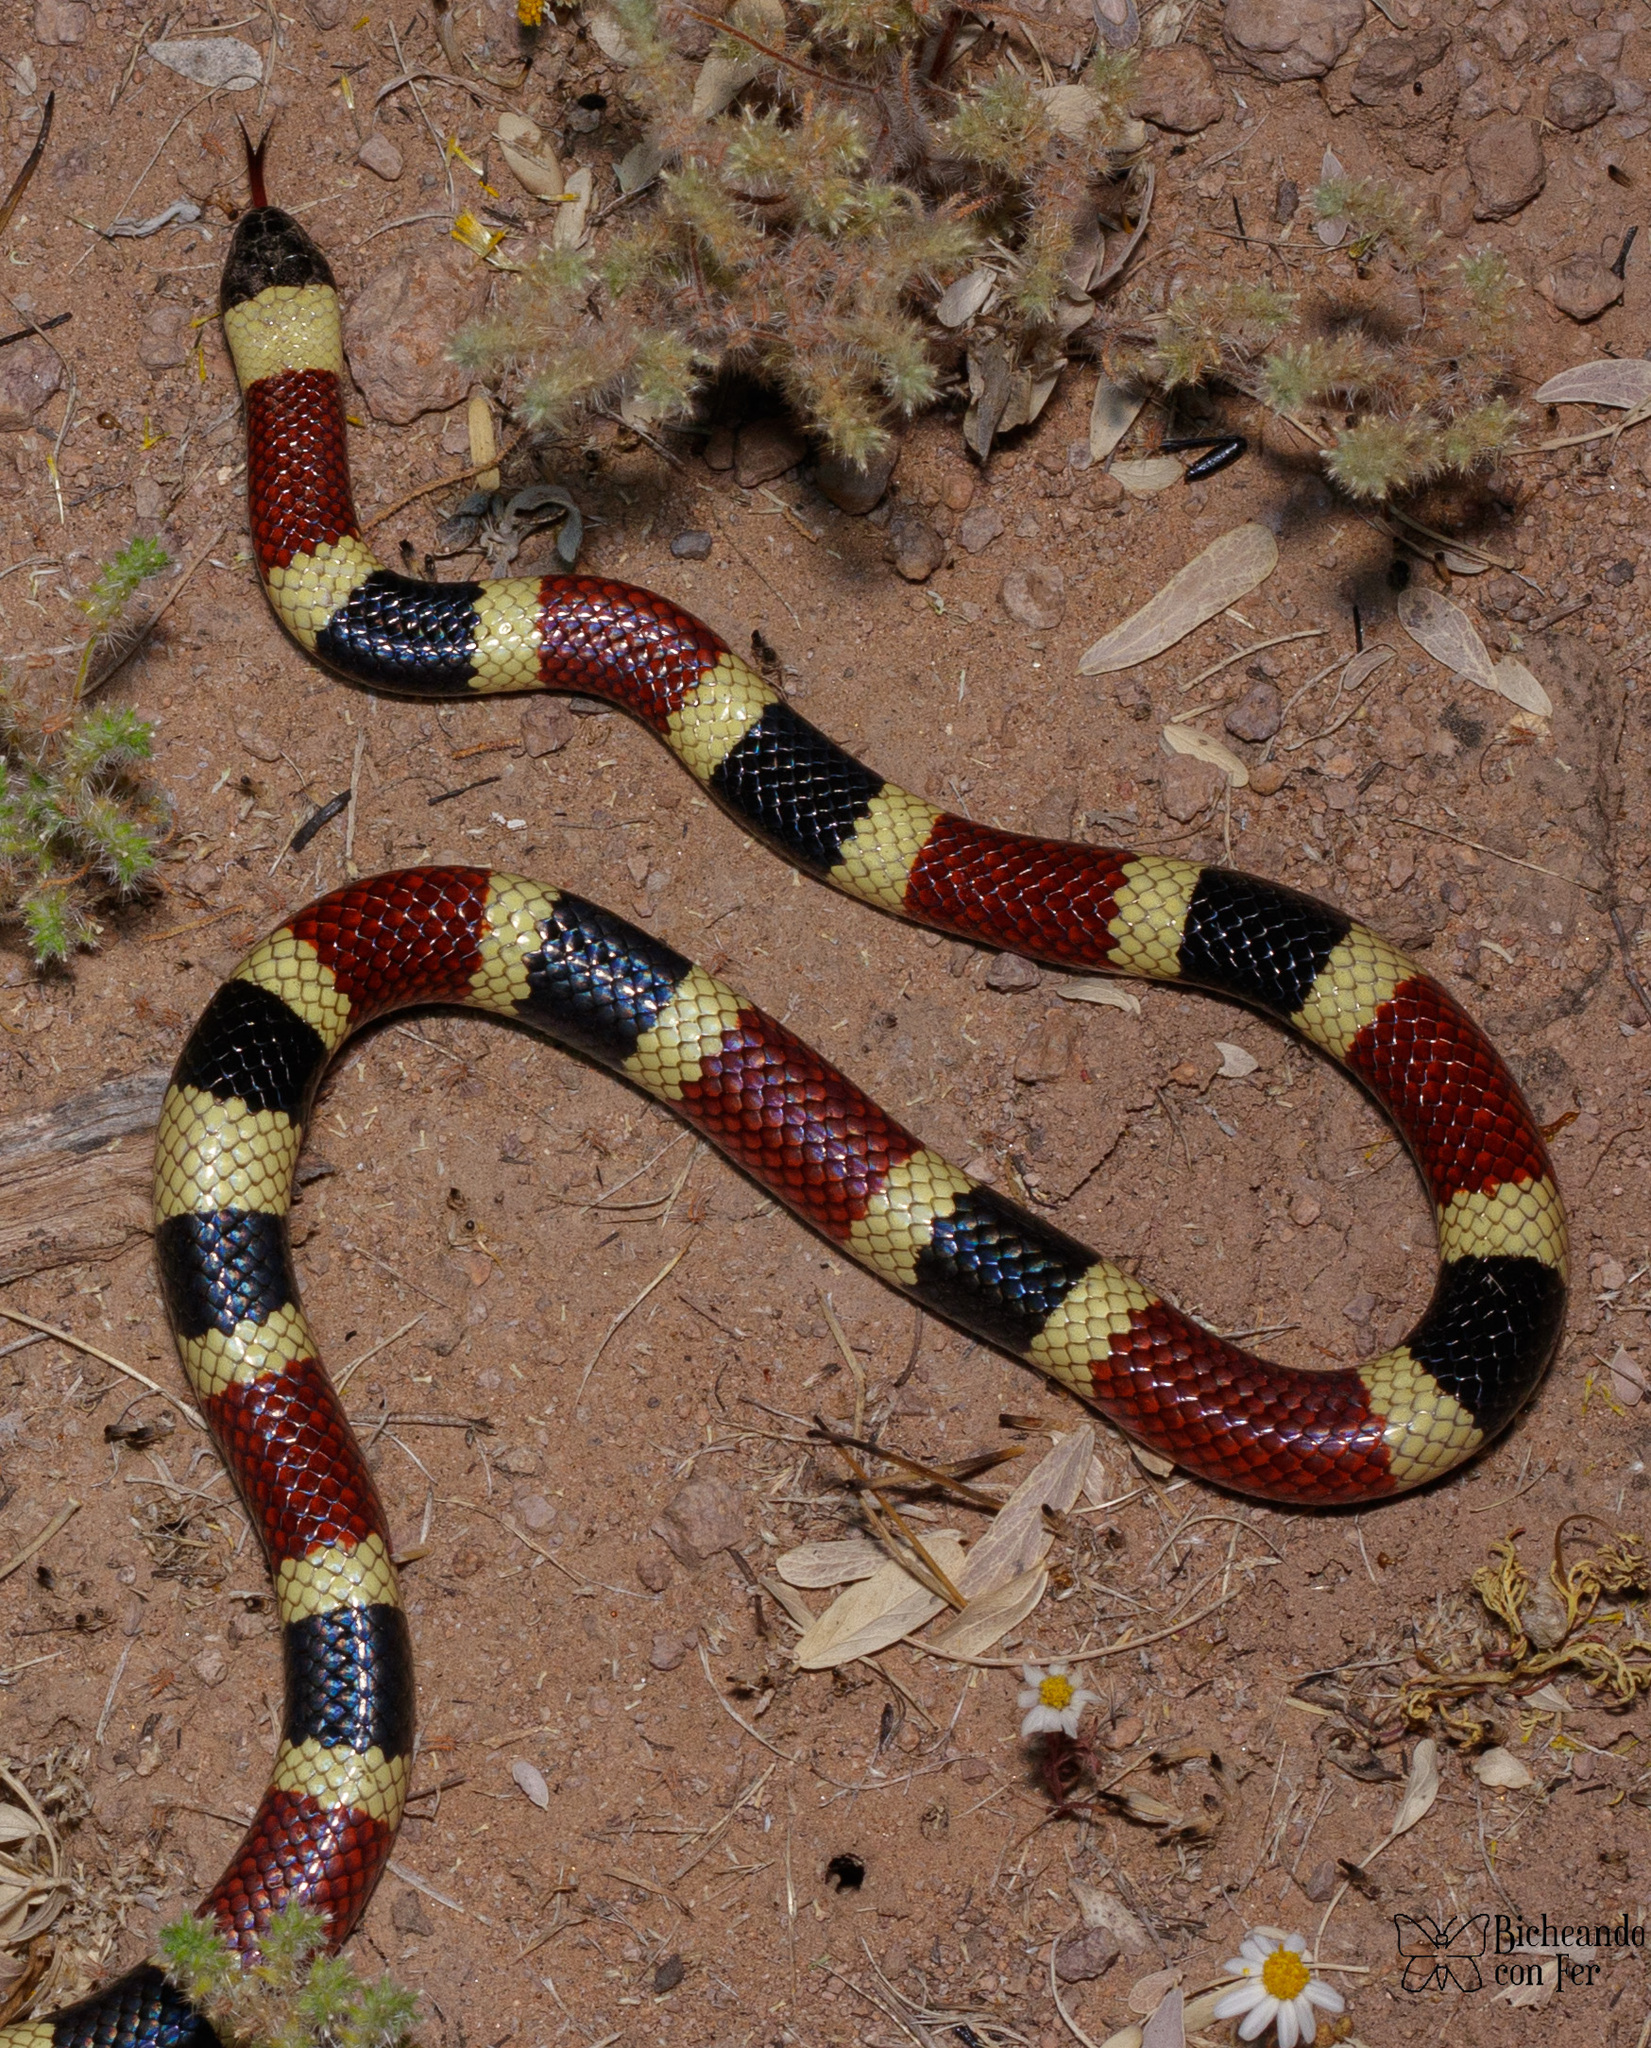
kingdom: Animalia
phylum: Chordata
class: Squamata
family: Elapidae
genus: Micruroides
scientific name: Micruroides euryxanthus
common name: Western coral snake
